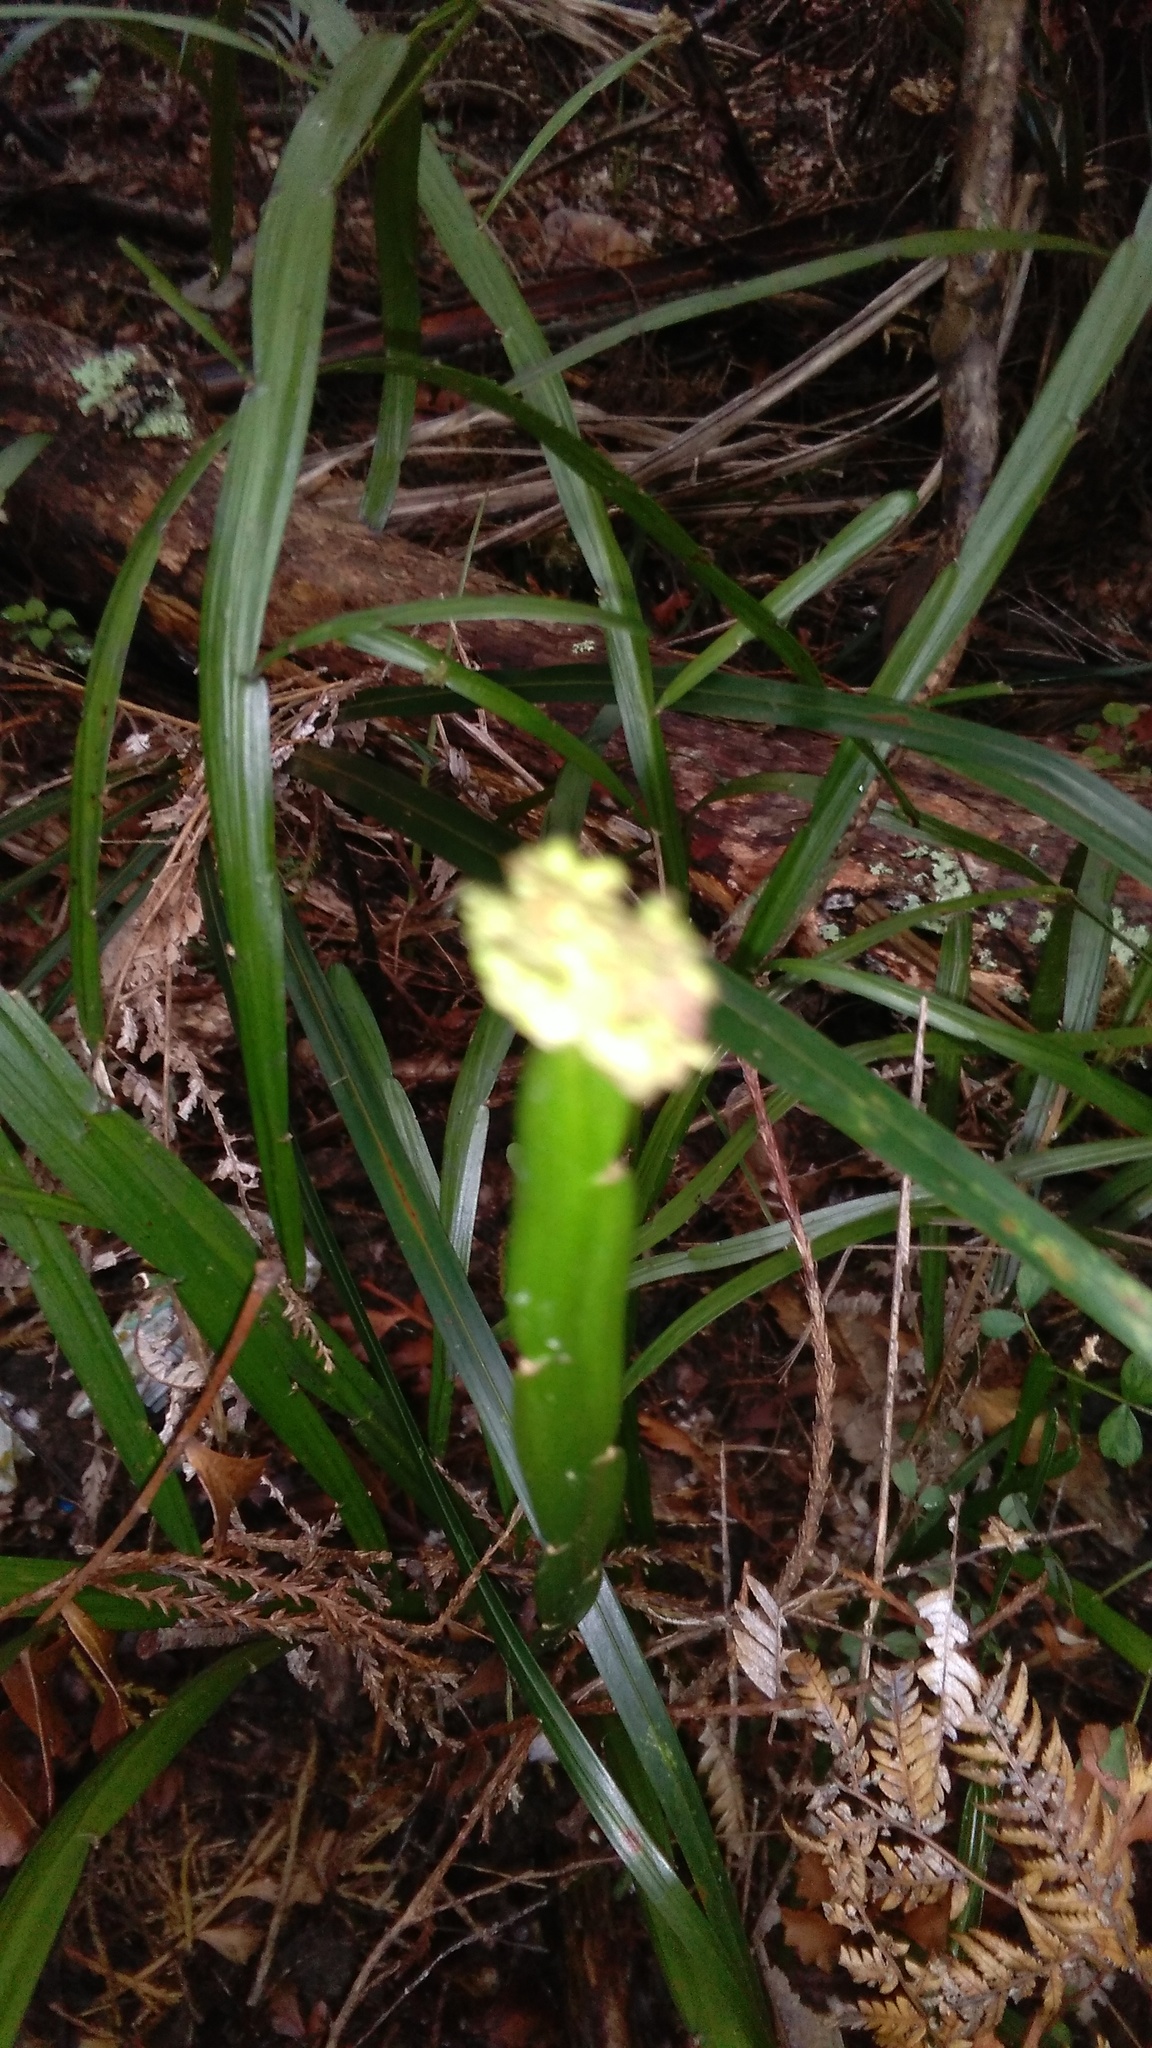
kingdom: Plantae
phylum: Tracheophyta
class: Magnoliopsida
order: Fabales
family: Fabaceae
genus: Carmichaelia
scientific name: Carmichaelia australis
